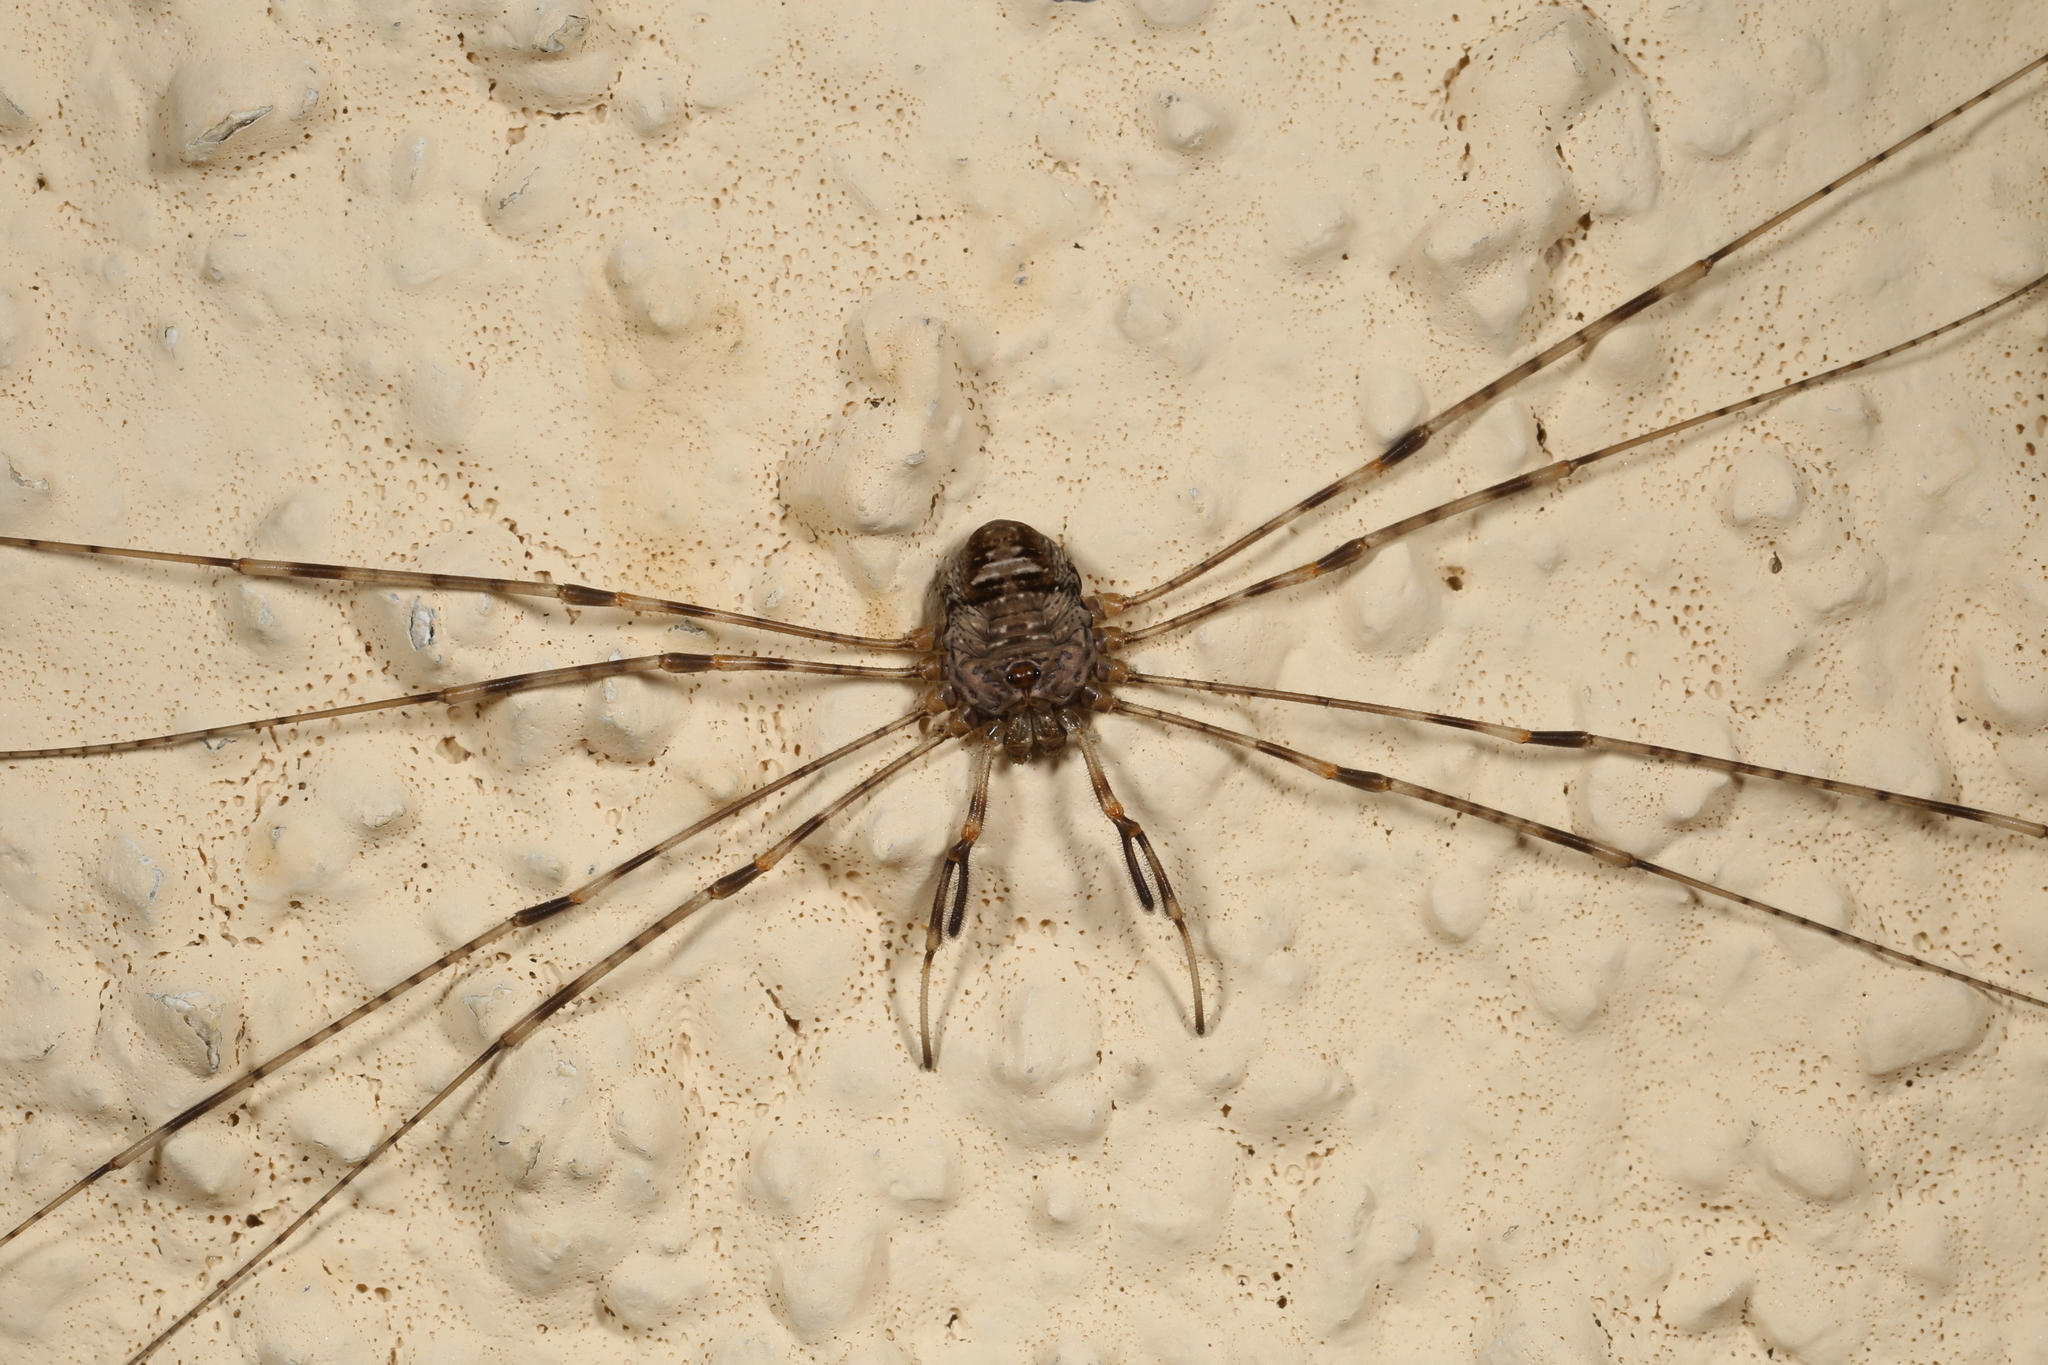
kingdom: Animalia
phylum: Arthropoda
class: Arachnida
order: Opiliones
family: Phalangiidae
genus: Dicranopalpus
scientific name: Dicranopalpus ramosus
